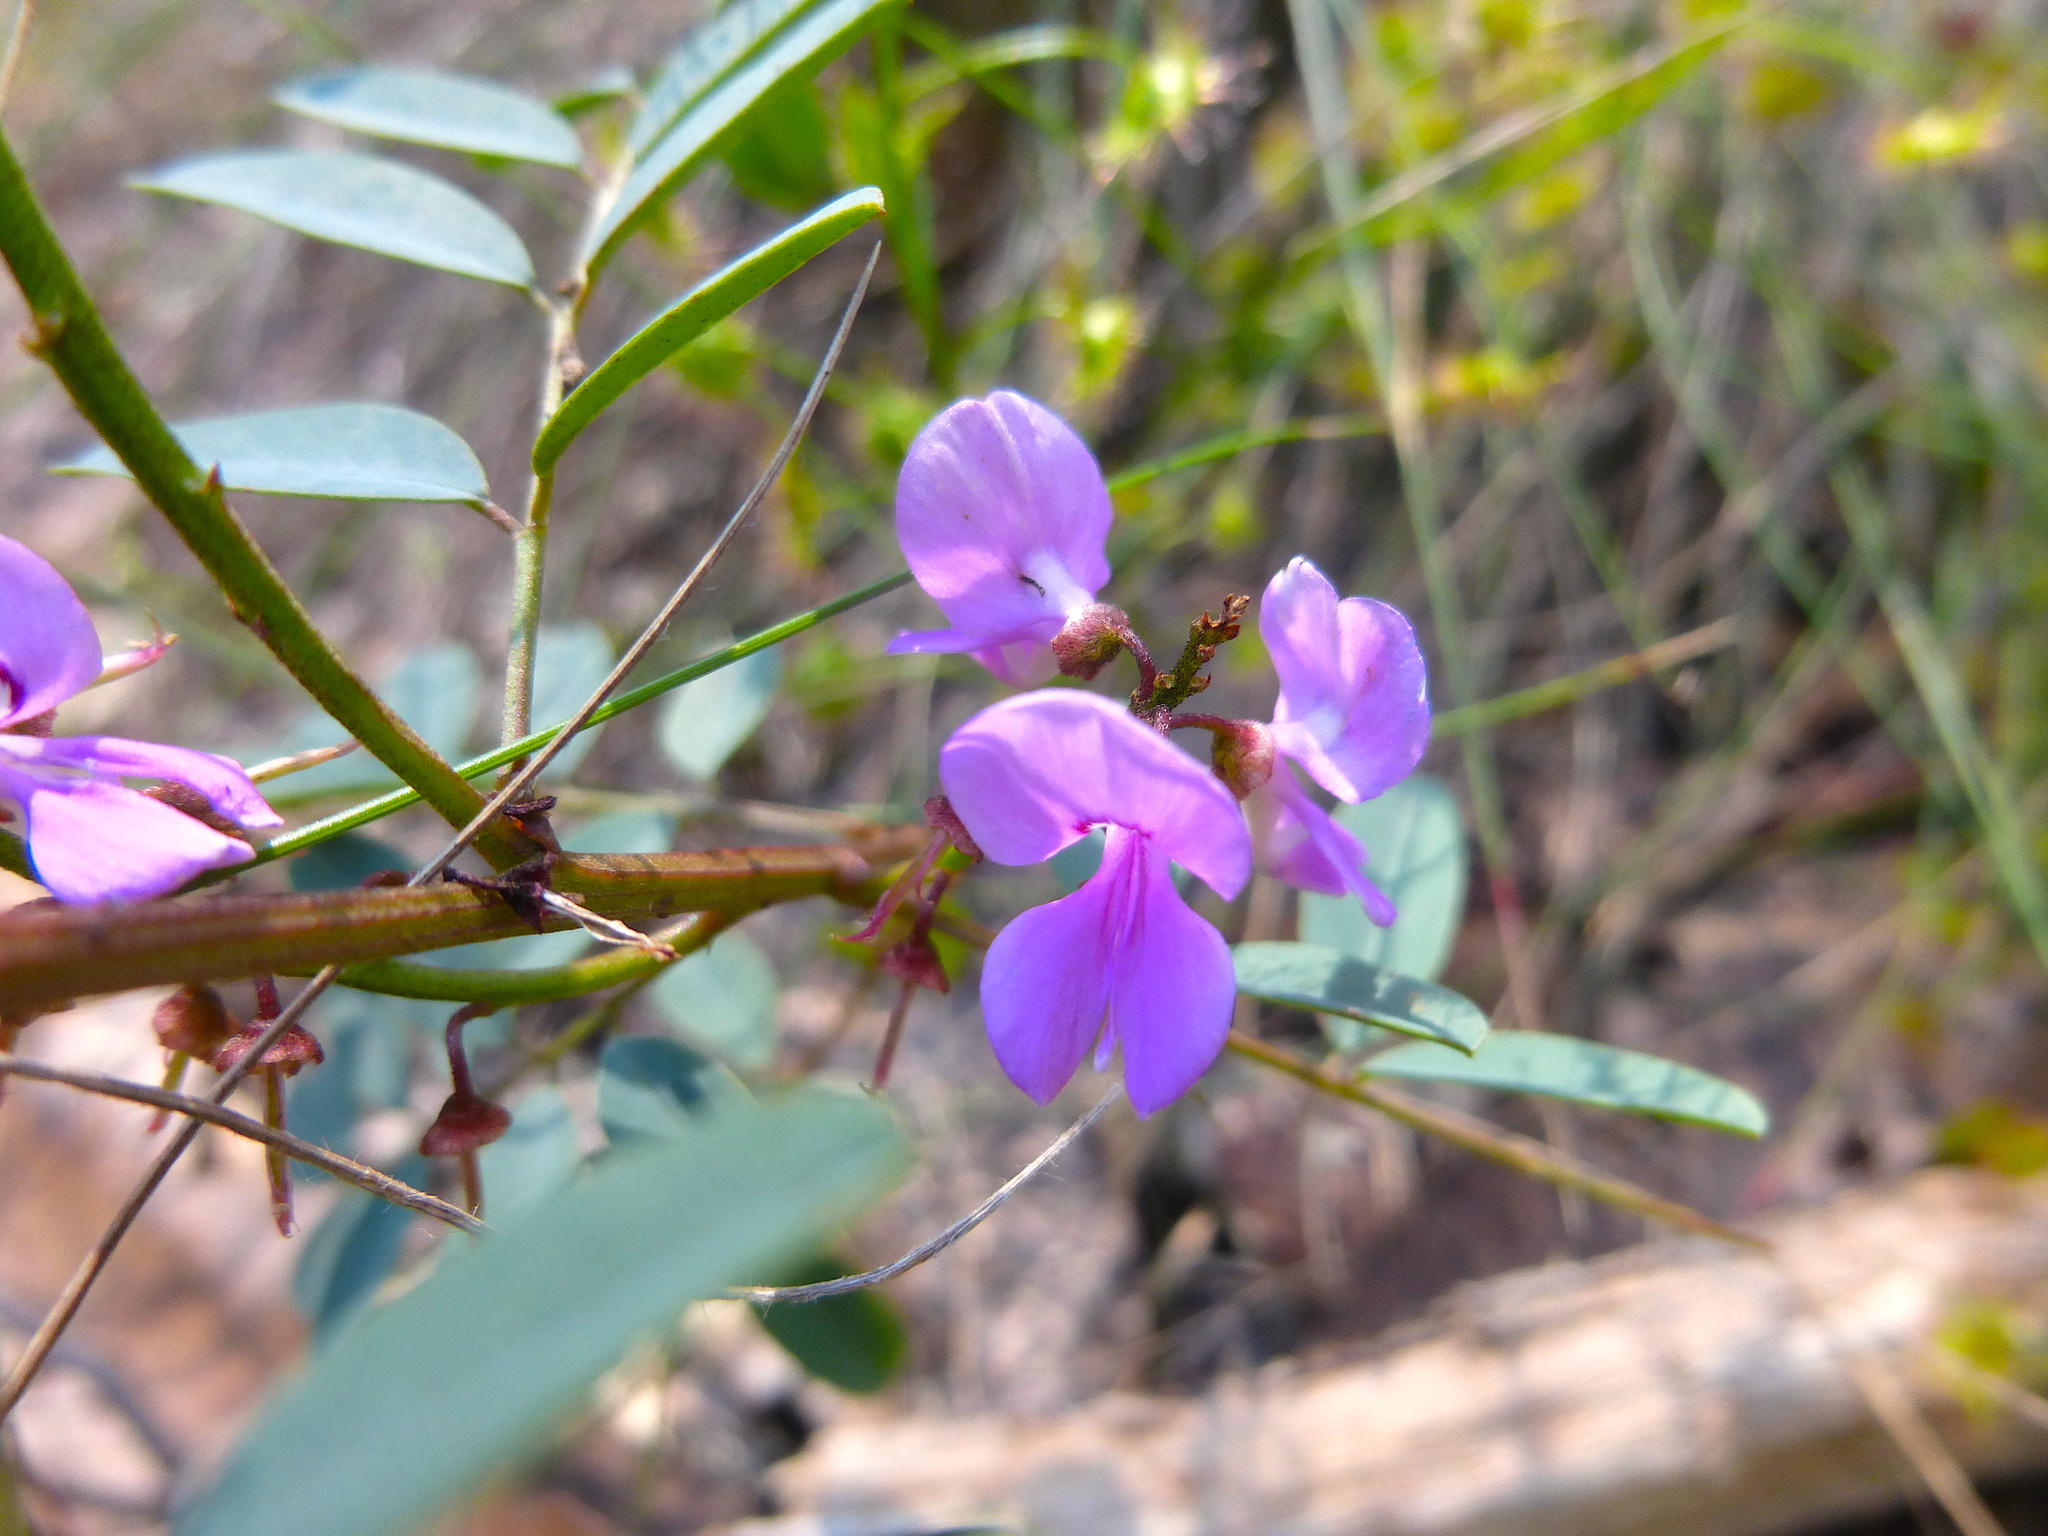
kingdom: Plantae
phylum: Tracheophyta
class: Magnoliopsida
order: Fabales
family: Fabaceae
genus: Indigofera
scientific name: Indigofera australis
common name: Australian indigo
